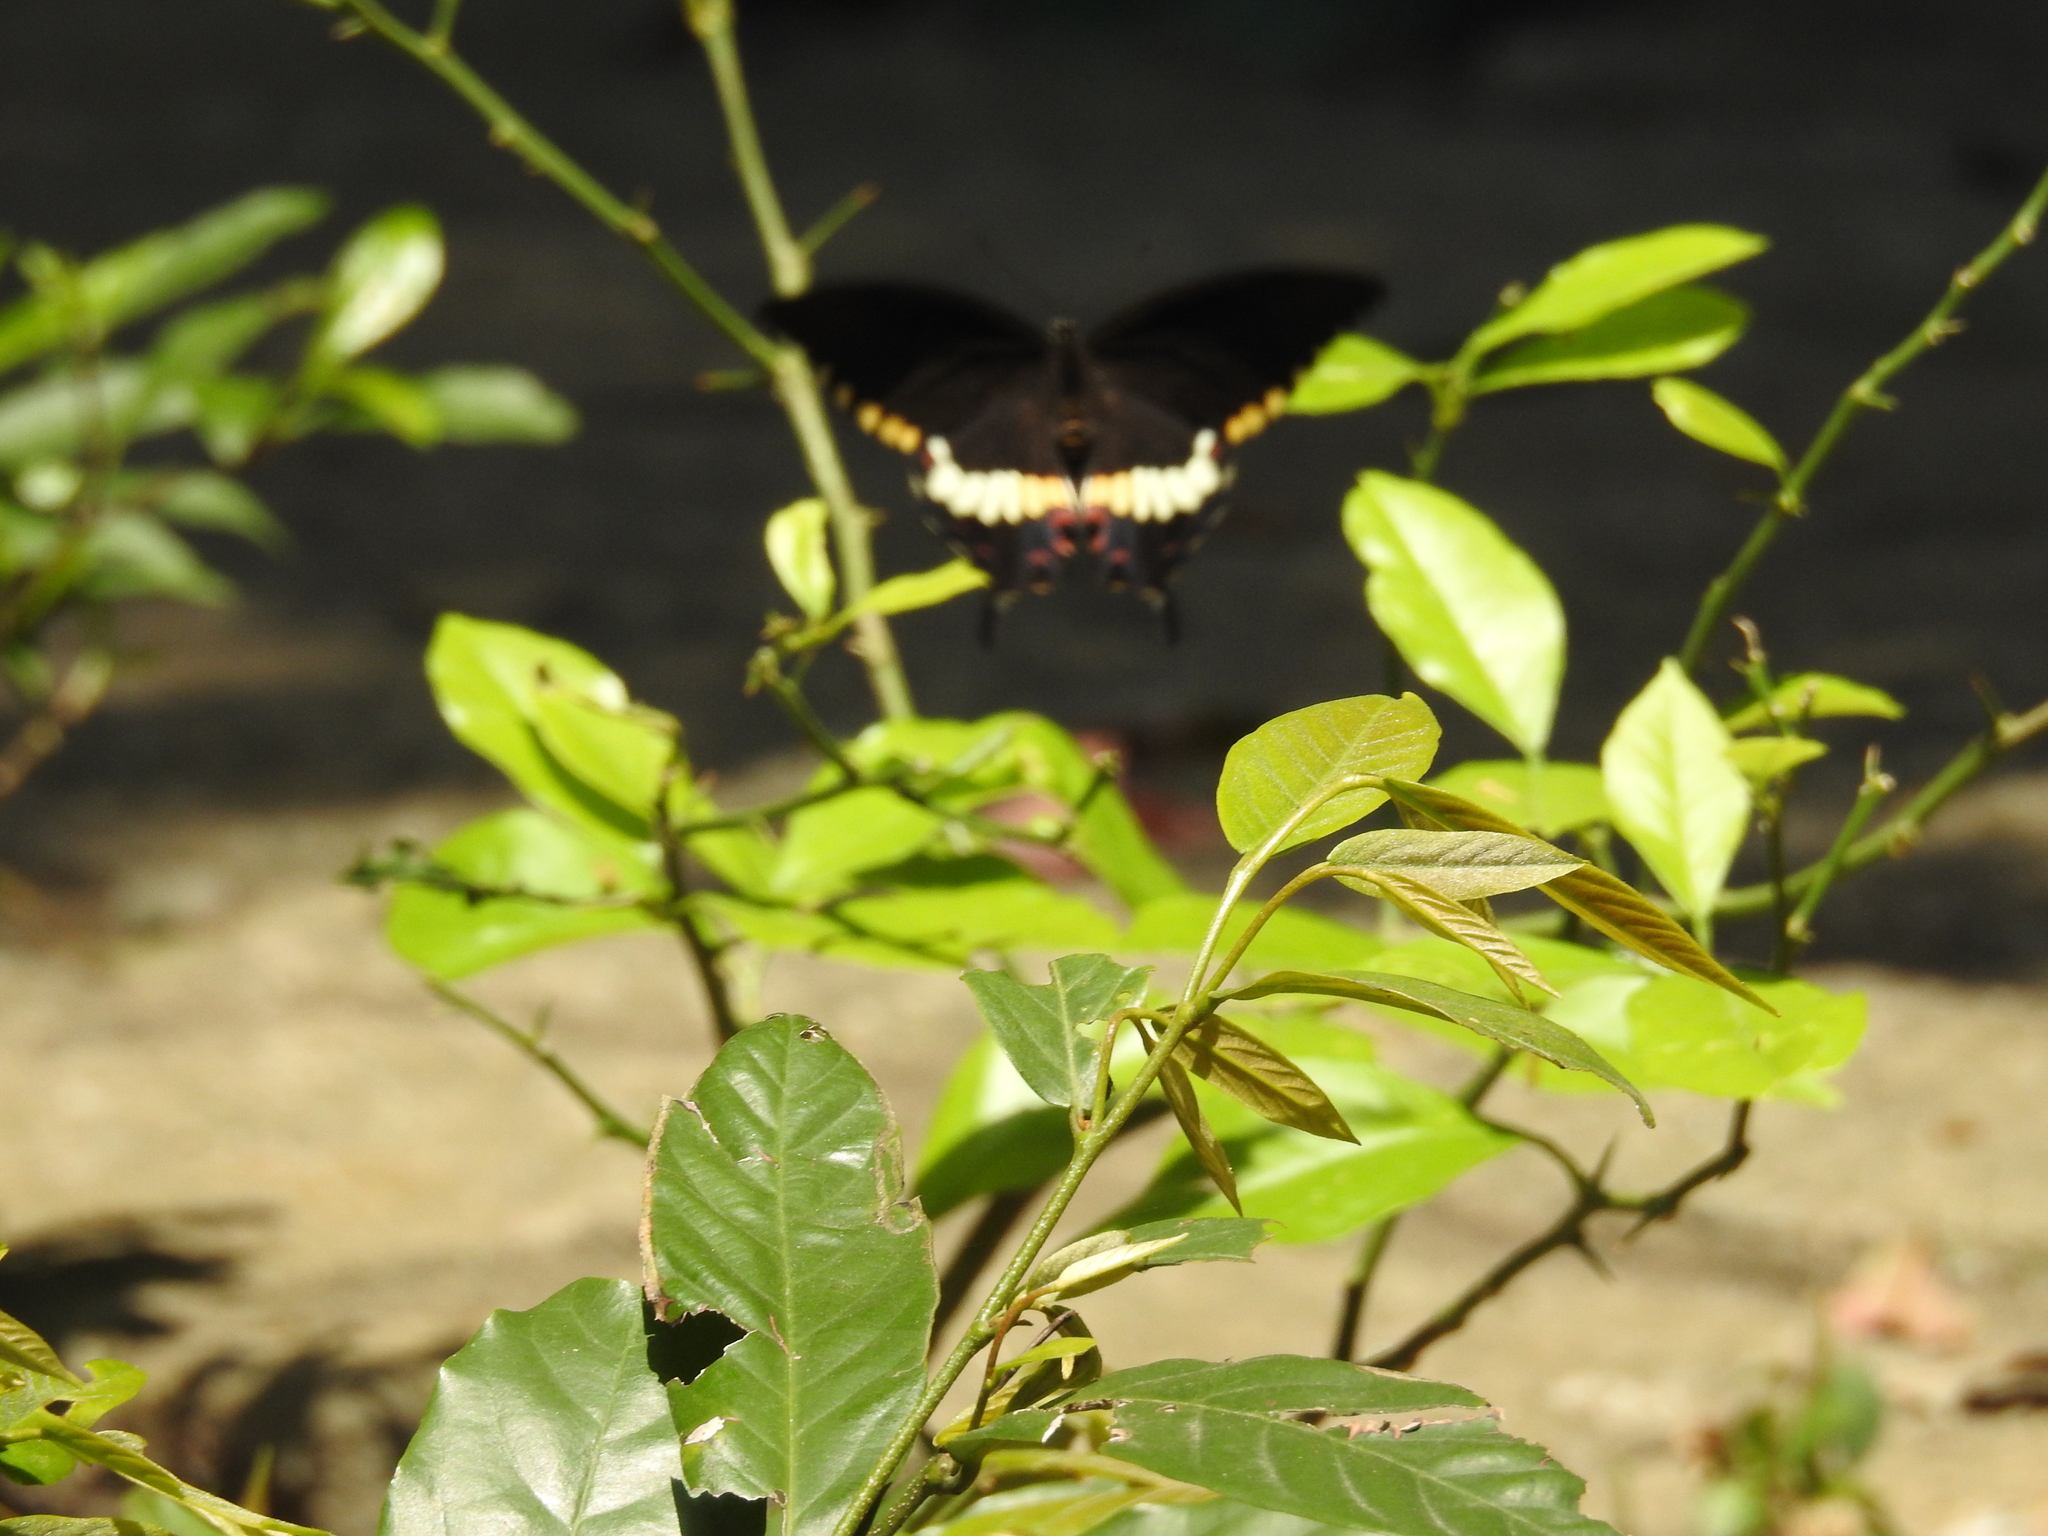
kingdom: Animalia
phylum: Arthropoda
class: Insecta
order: Lepidoptera
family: Papilionidae
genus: Papilio
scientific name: Papilio polytes
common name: Common mormon
